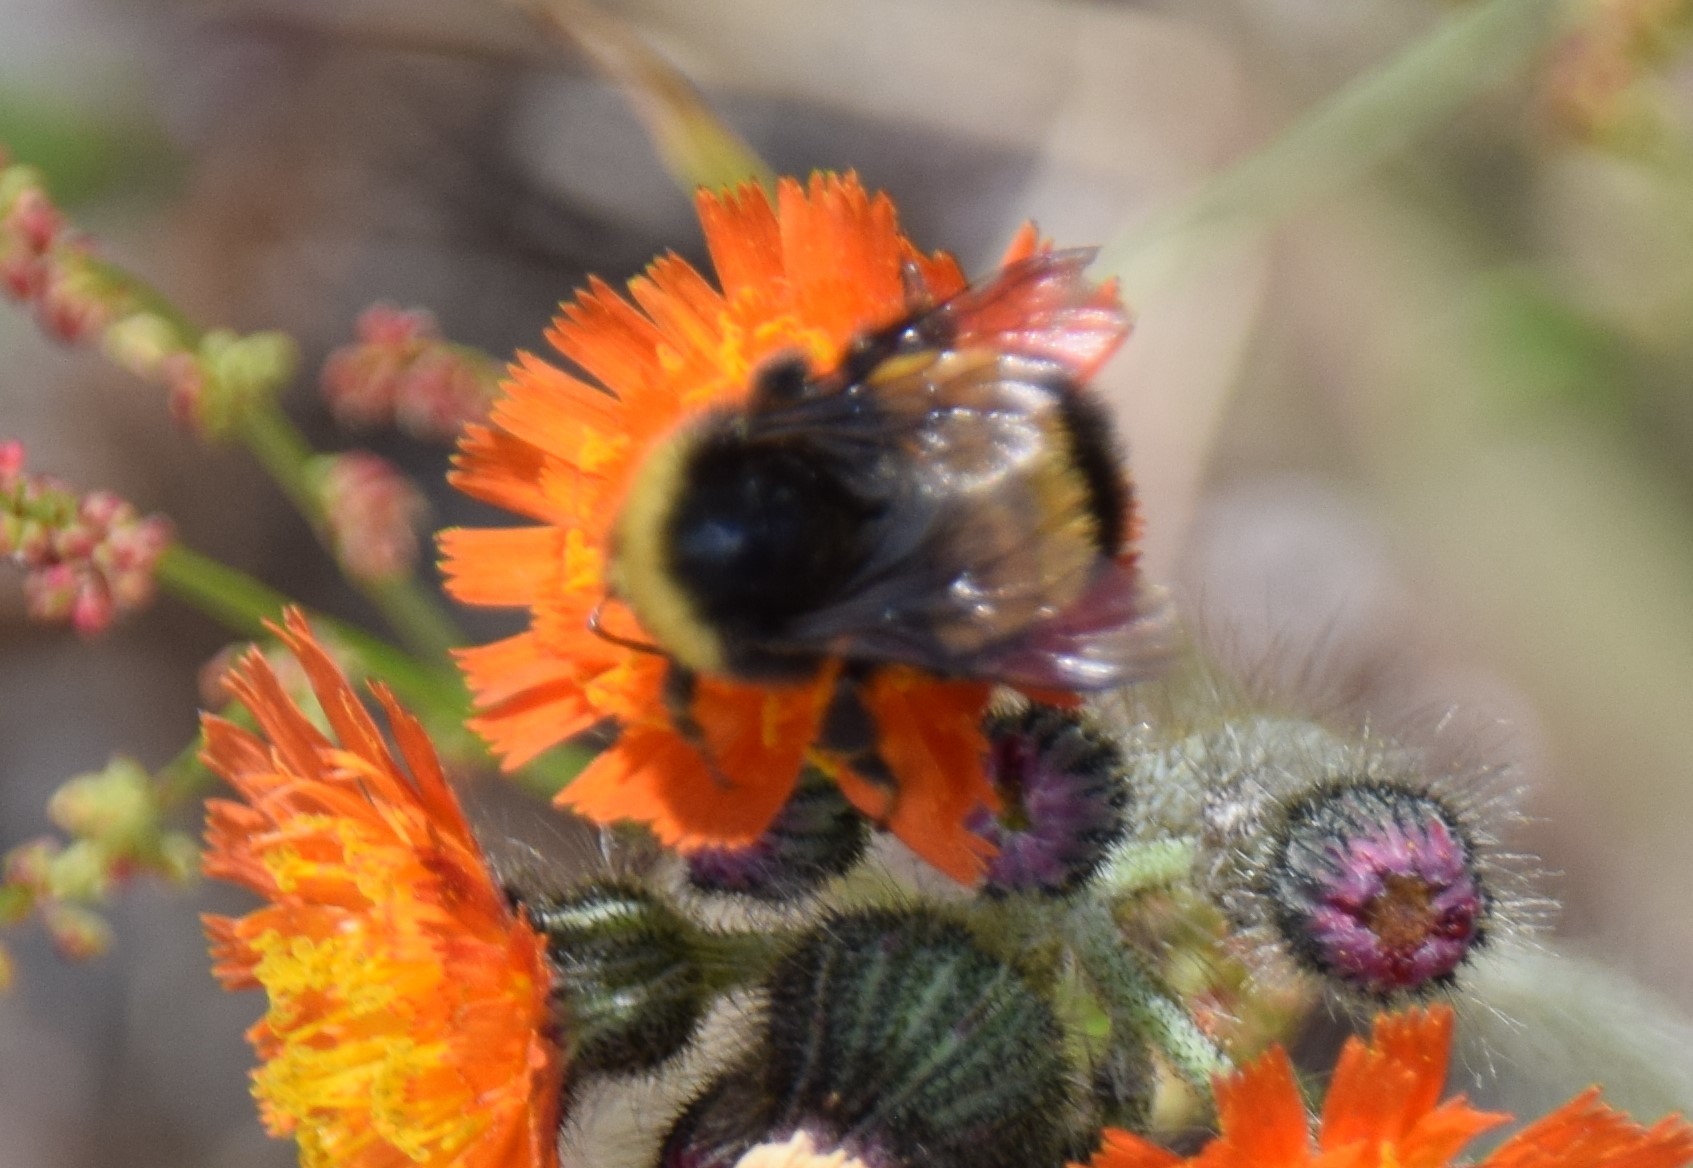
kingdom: Animalia
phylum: Arthropoda
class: Insecta
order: Hymenoptera
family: Apidae
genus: Bombus
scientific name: Bombus terricola
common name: Yellow-banded bumble bee
